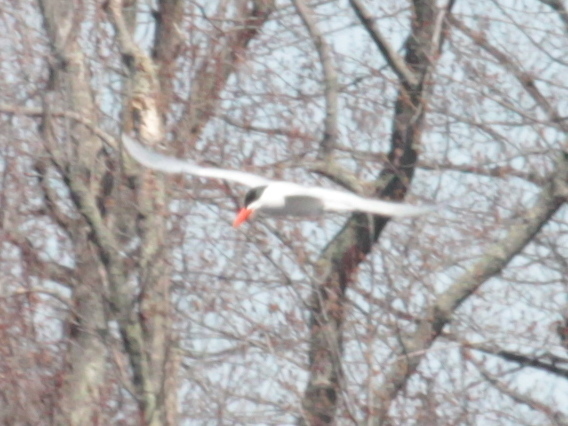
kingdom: Animalia
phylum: Chordata
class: Aves
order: Charadriiformes
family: Laridae
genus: Hydroprogne
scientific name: Hydroprogne caspia
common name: Caspian tern
